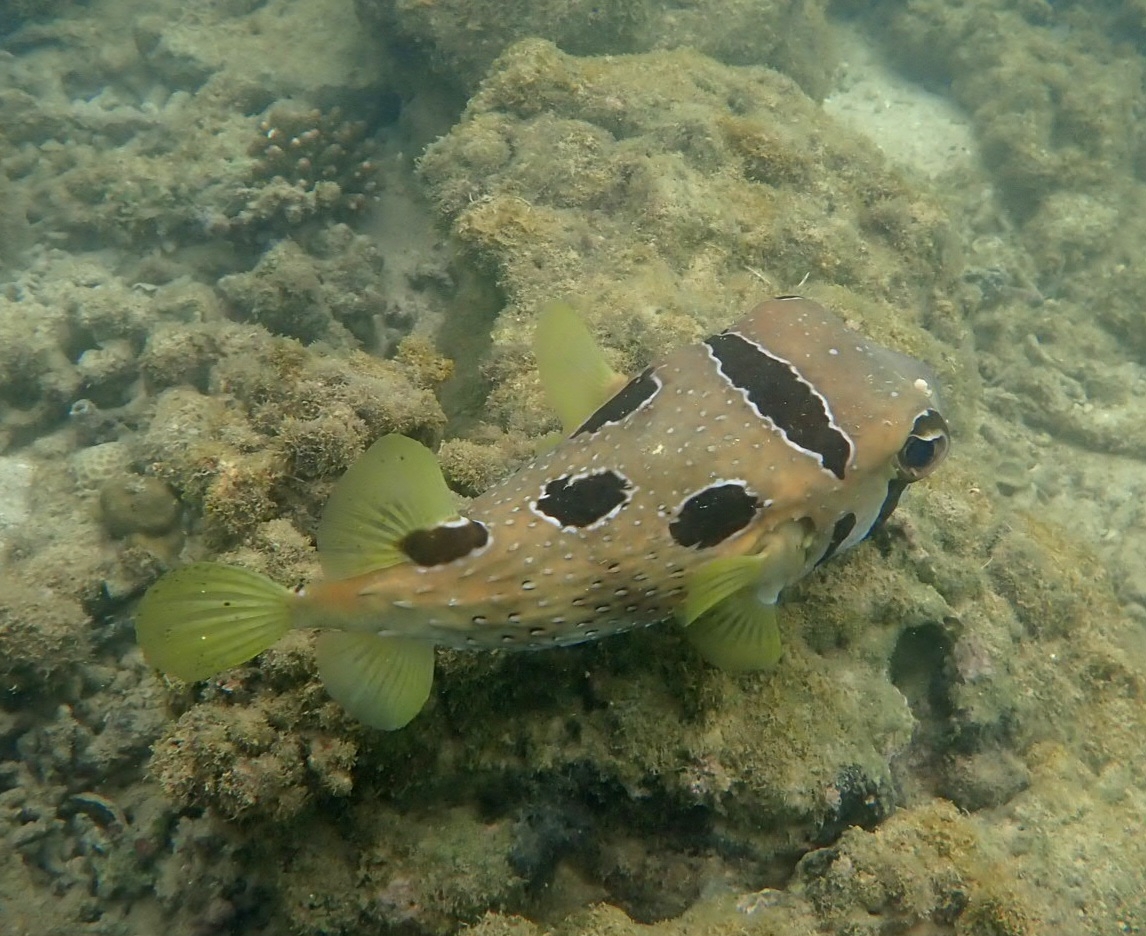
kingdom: Animalia
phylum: Chordata
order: Tetraodontiformes
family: Diodontidae
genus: Diodon
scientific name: Diodon liturosus
